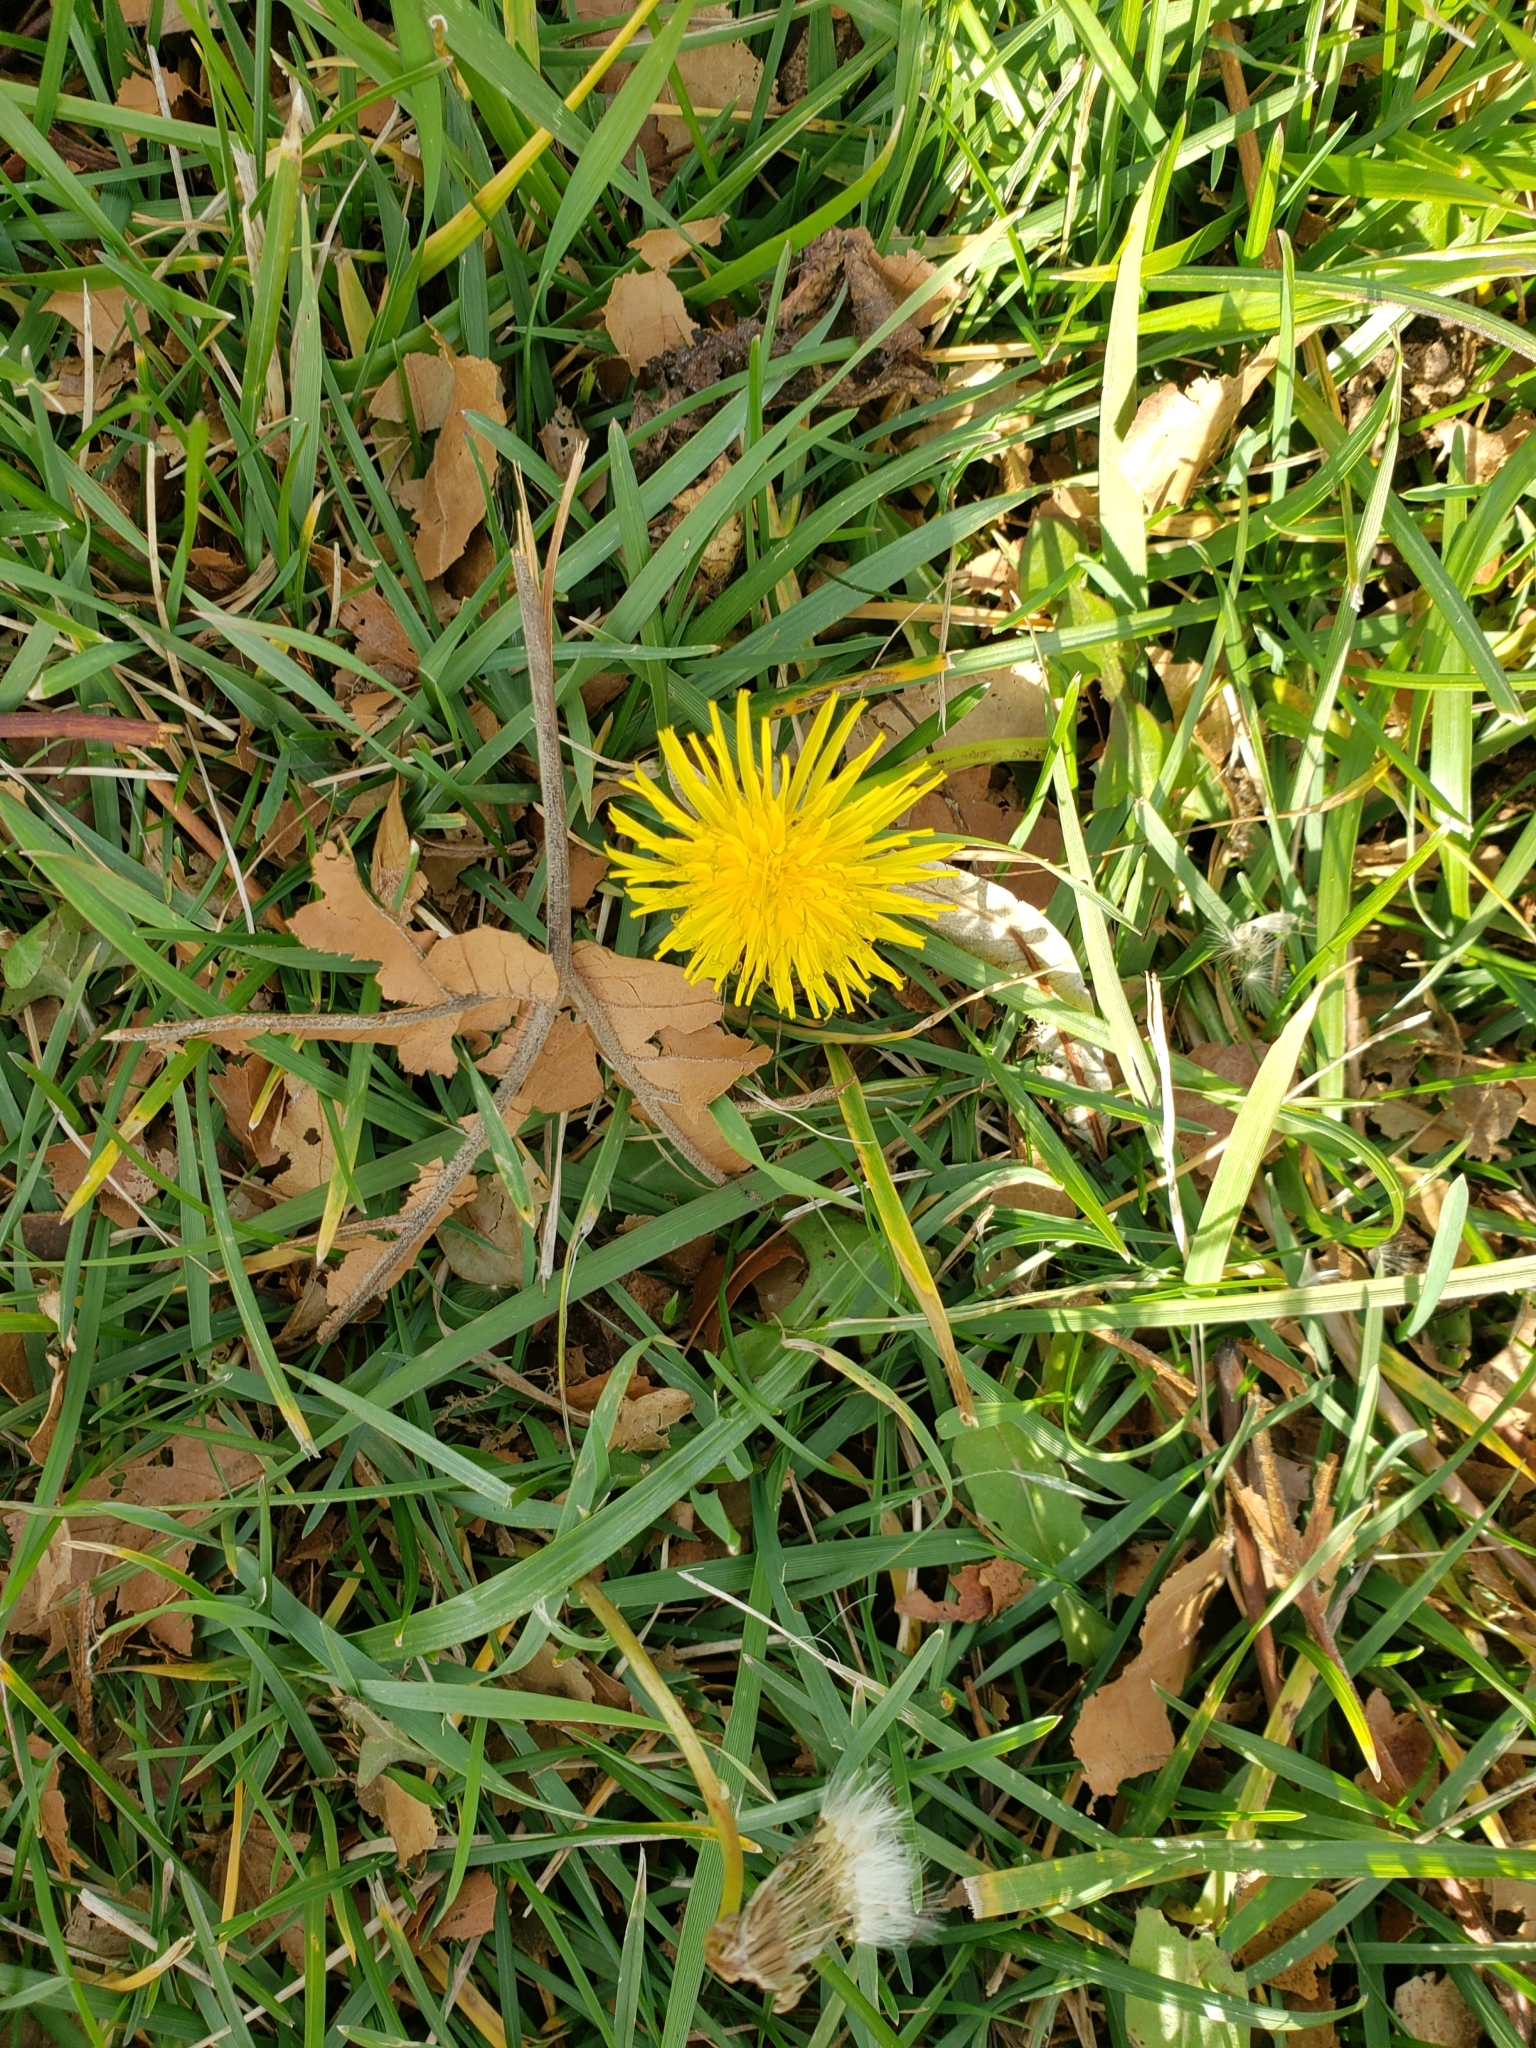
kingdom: Plantae
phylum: Tracheophyta
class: Magnoliopsida
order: Asterales
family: Asteraceae
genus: Taraxacum
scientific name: Taraxacum officinale
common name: Common dandelion
